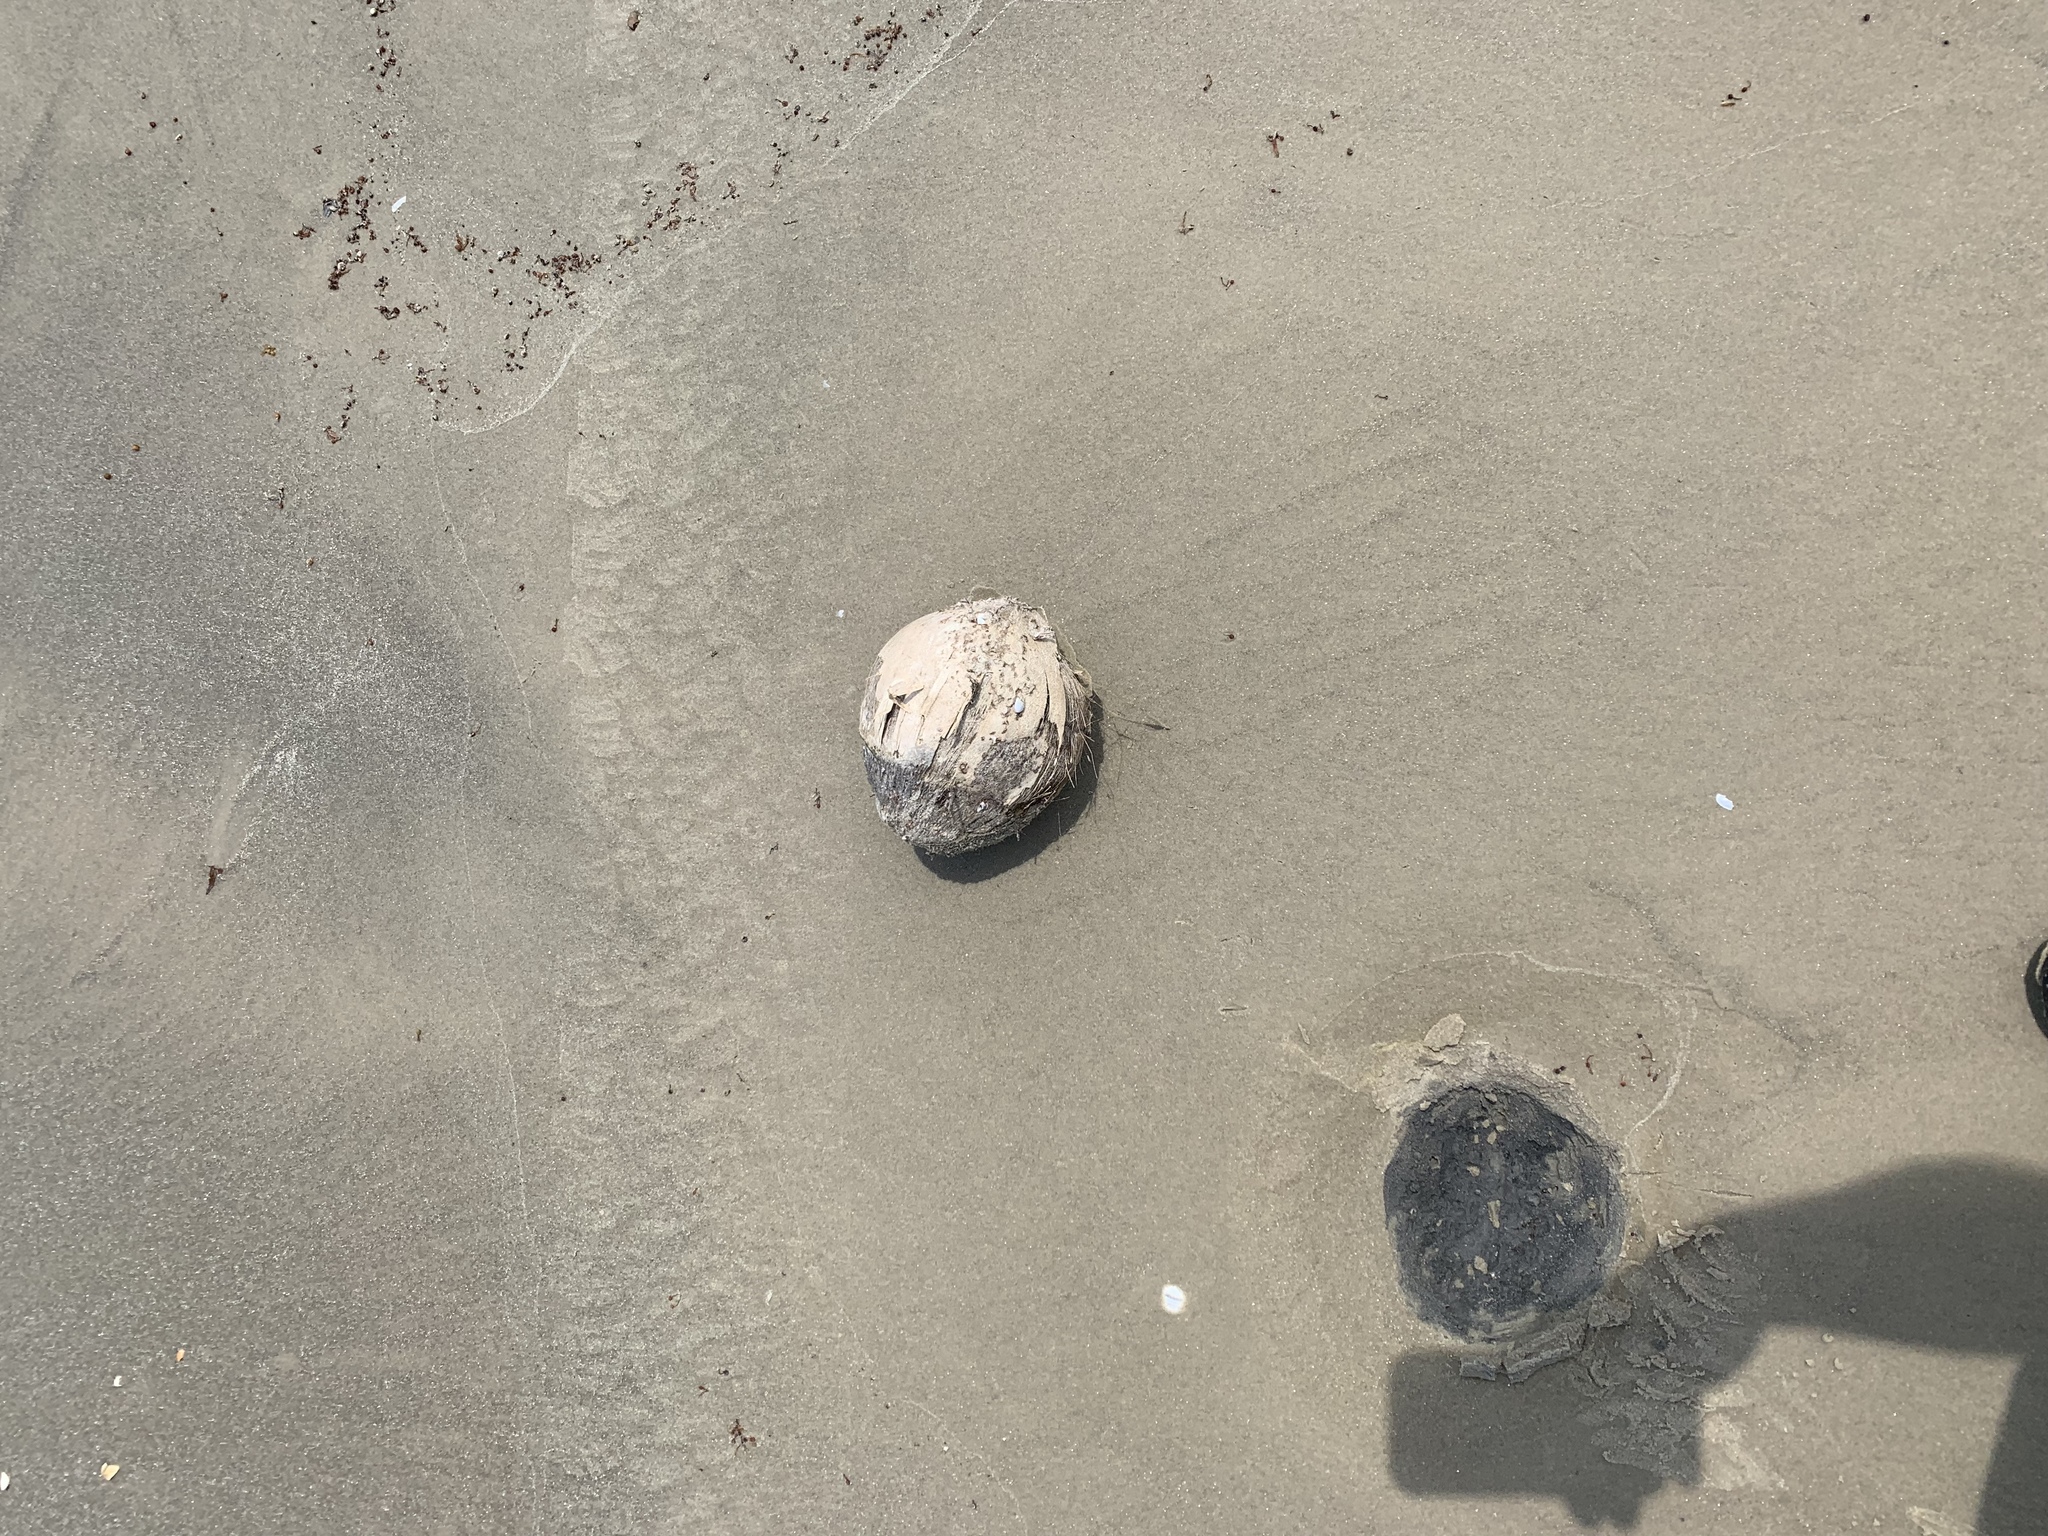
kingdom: Plantae
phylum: Tracheophyta
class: Liliopsida
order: Arecales
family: Arecaceae
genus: Cocos
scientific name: Cocos nucifera
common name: Coconut palm
